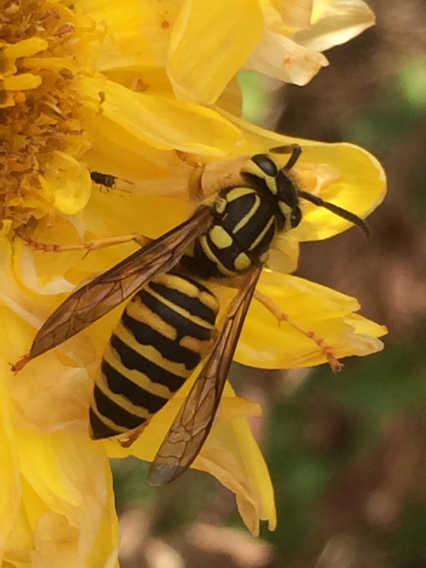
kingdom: Animalia
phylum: Arthropoda
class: Insecta
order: Hymenoptera
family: Vespidae
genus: Vespula
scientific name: Vespula squamosa
